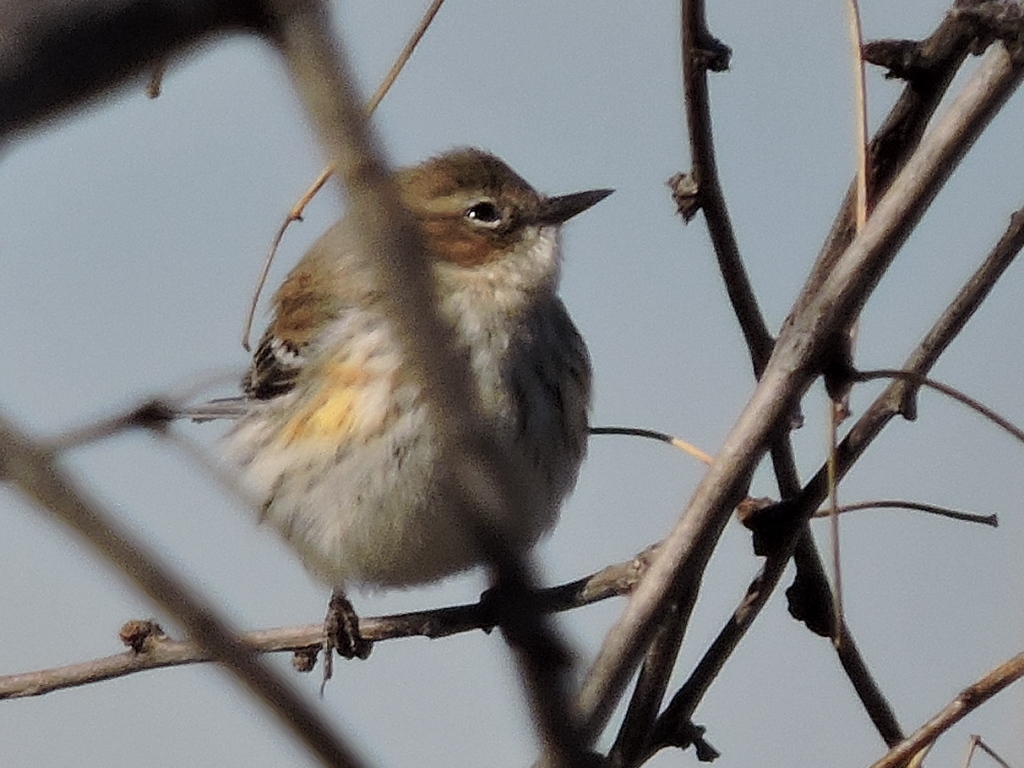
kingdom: Animalia
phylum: Chordata
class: Aves
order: Passeriformes
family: Parulidae
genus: Setophaga
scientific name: Setophaga coronata
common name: Myrtle warbler
